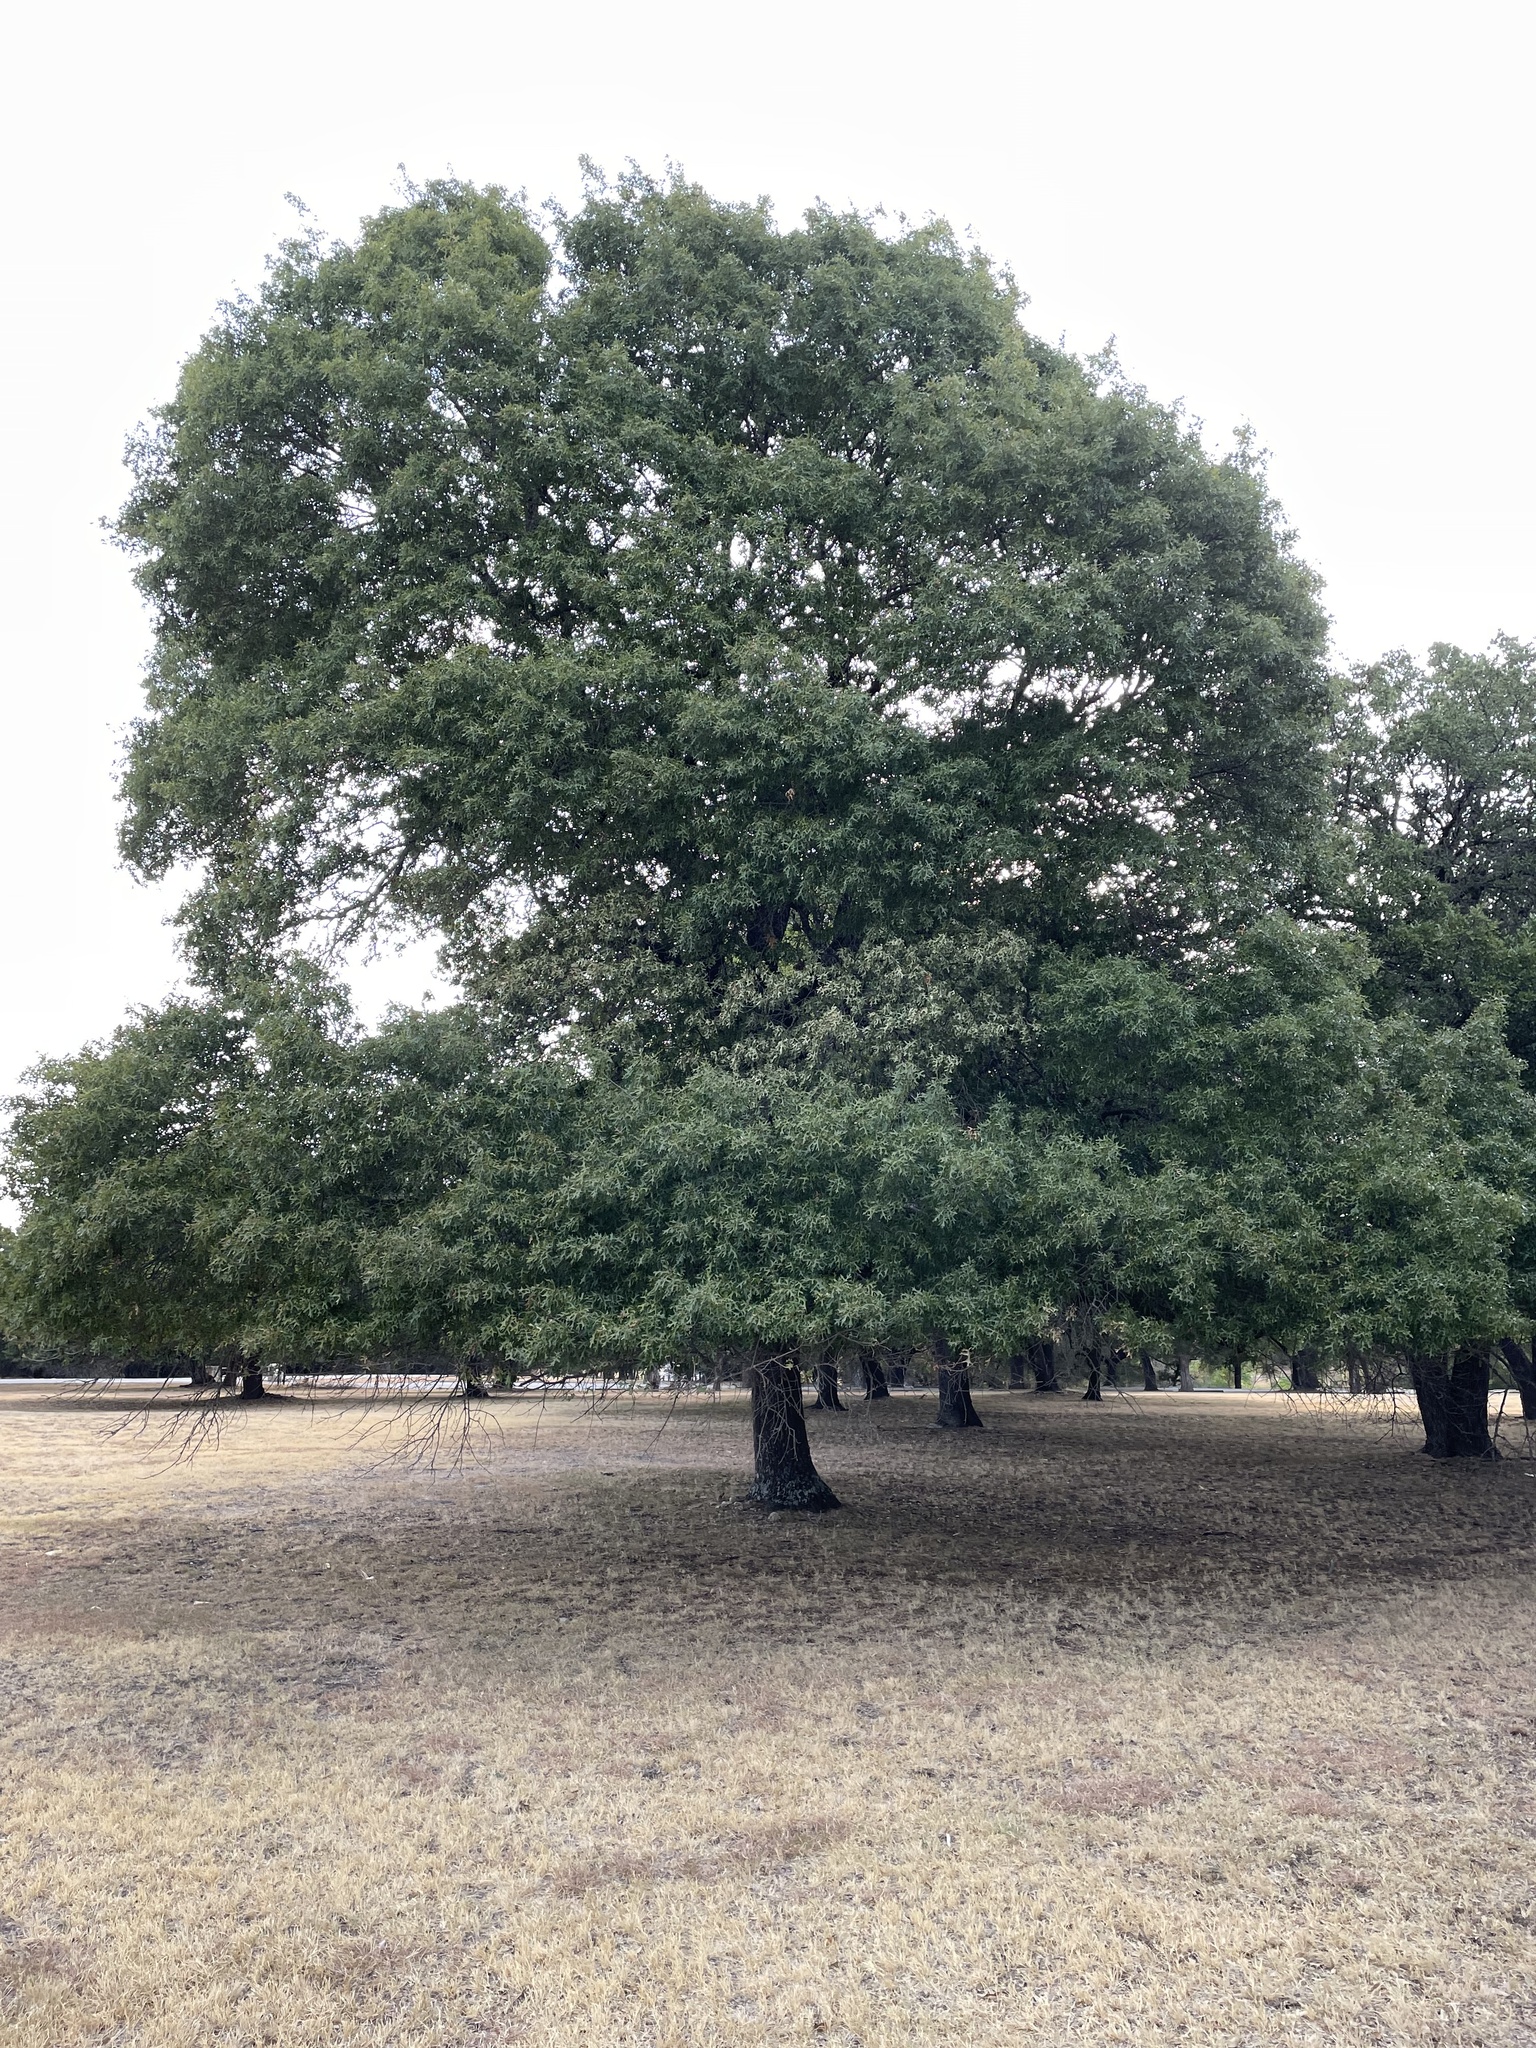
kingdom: Plantae
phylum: Tracheophyta
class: Magnoliopsida
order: Fagales
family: Fagaceae
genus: Quercus
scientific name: Quercus buckleyi
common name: Buckley oak
